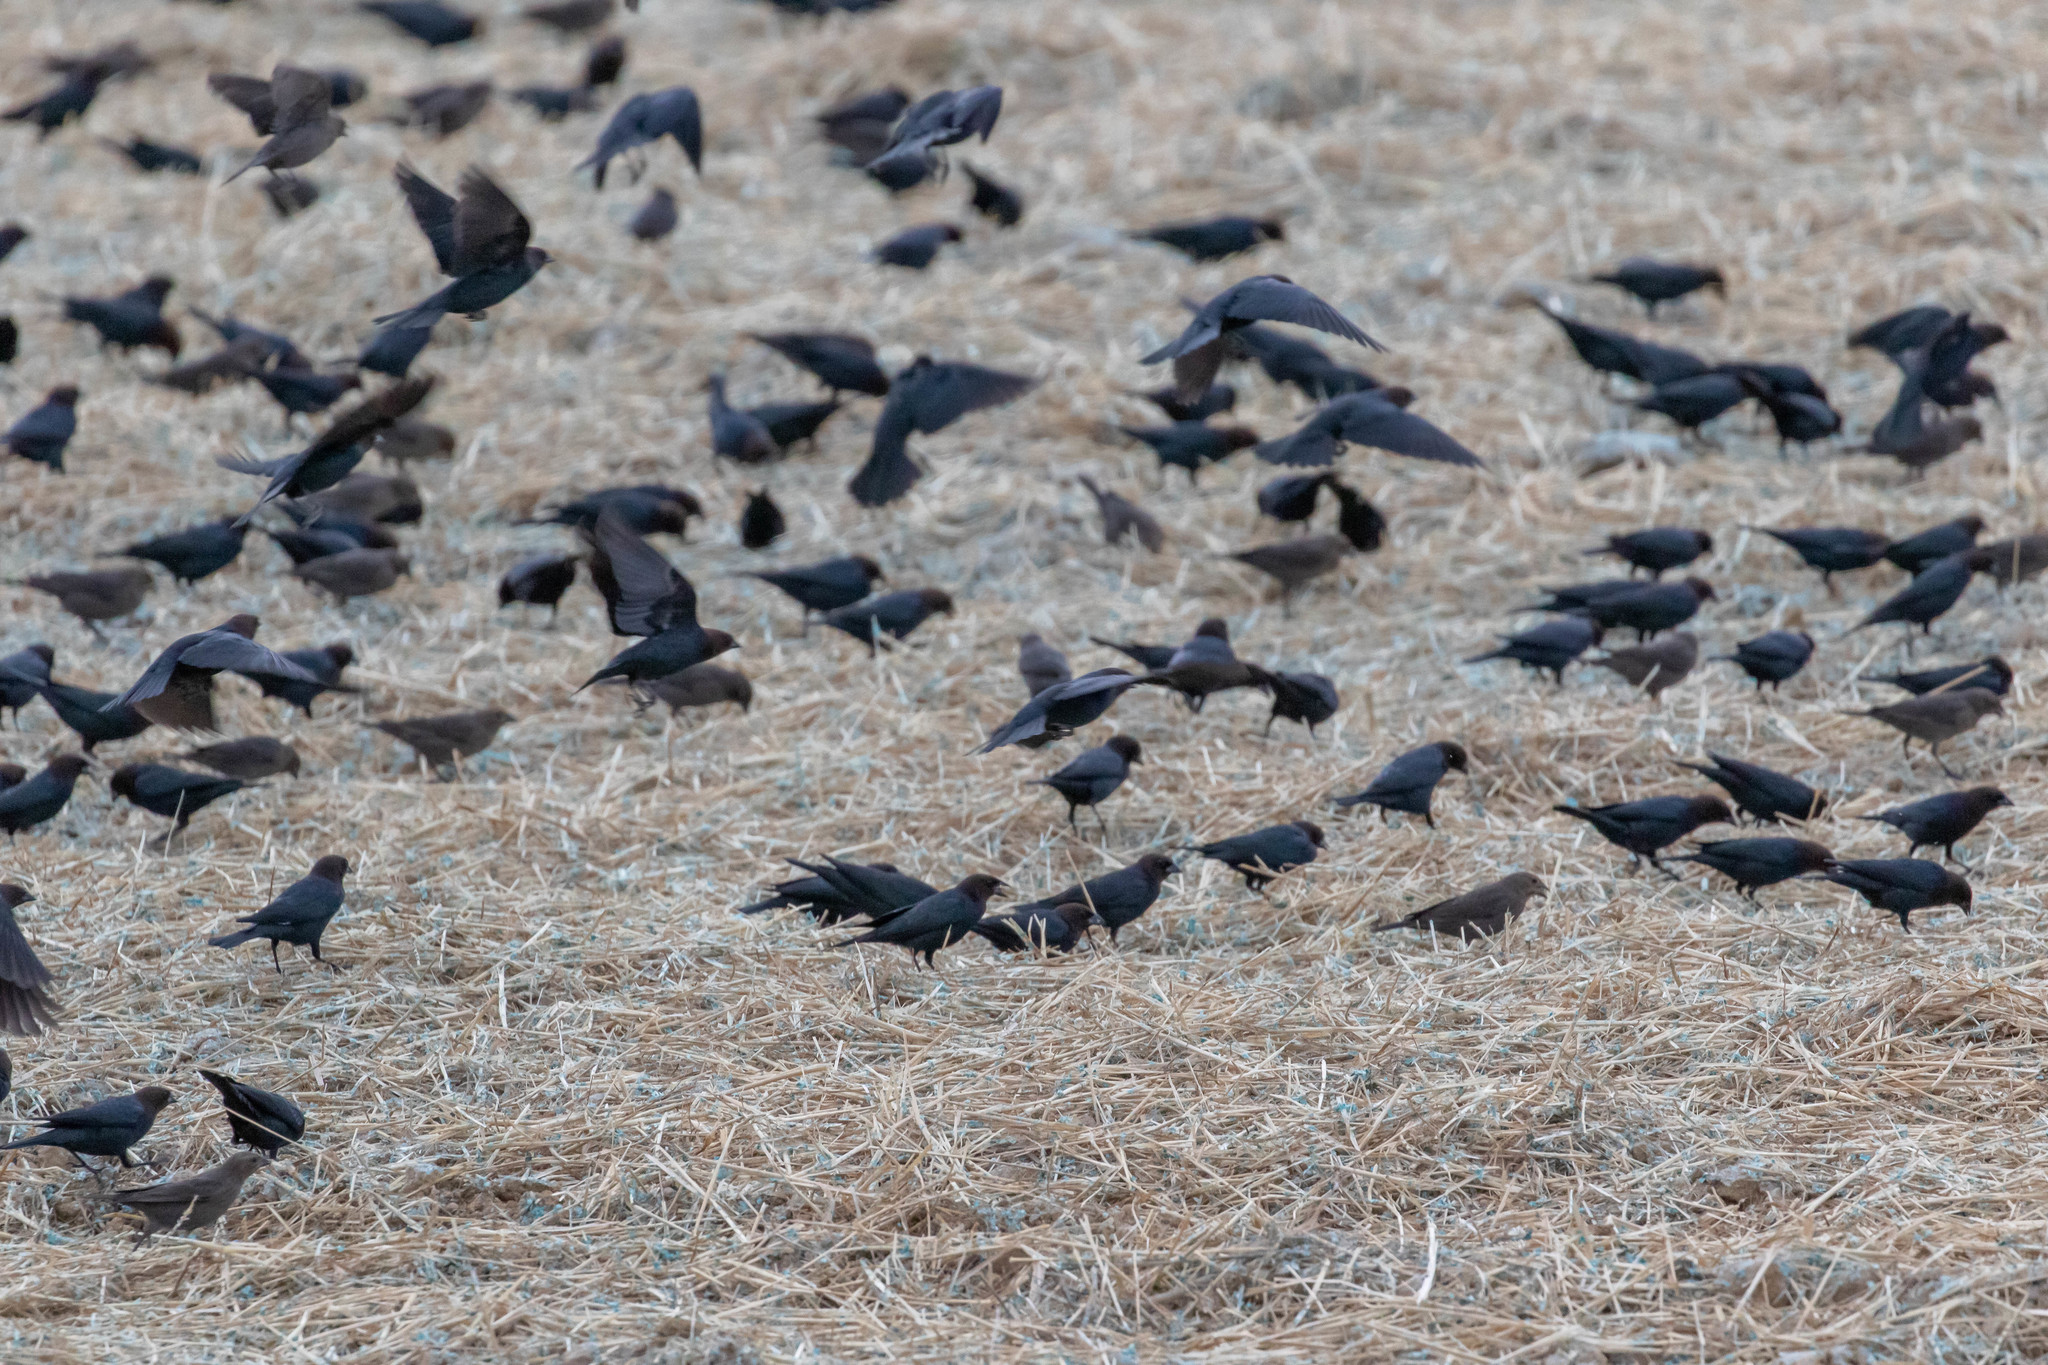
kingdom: Animalia
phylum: Chordata
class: Aves
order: Passeriformes
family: Icteridae
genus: Molothrus
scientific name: Molothrus ater
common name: Brown-headed cowbird
